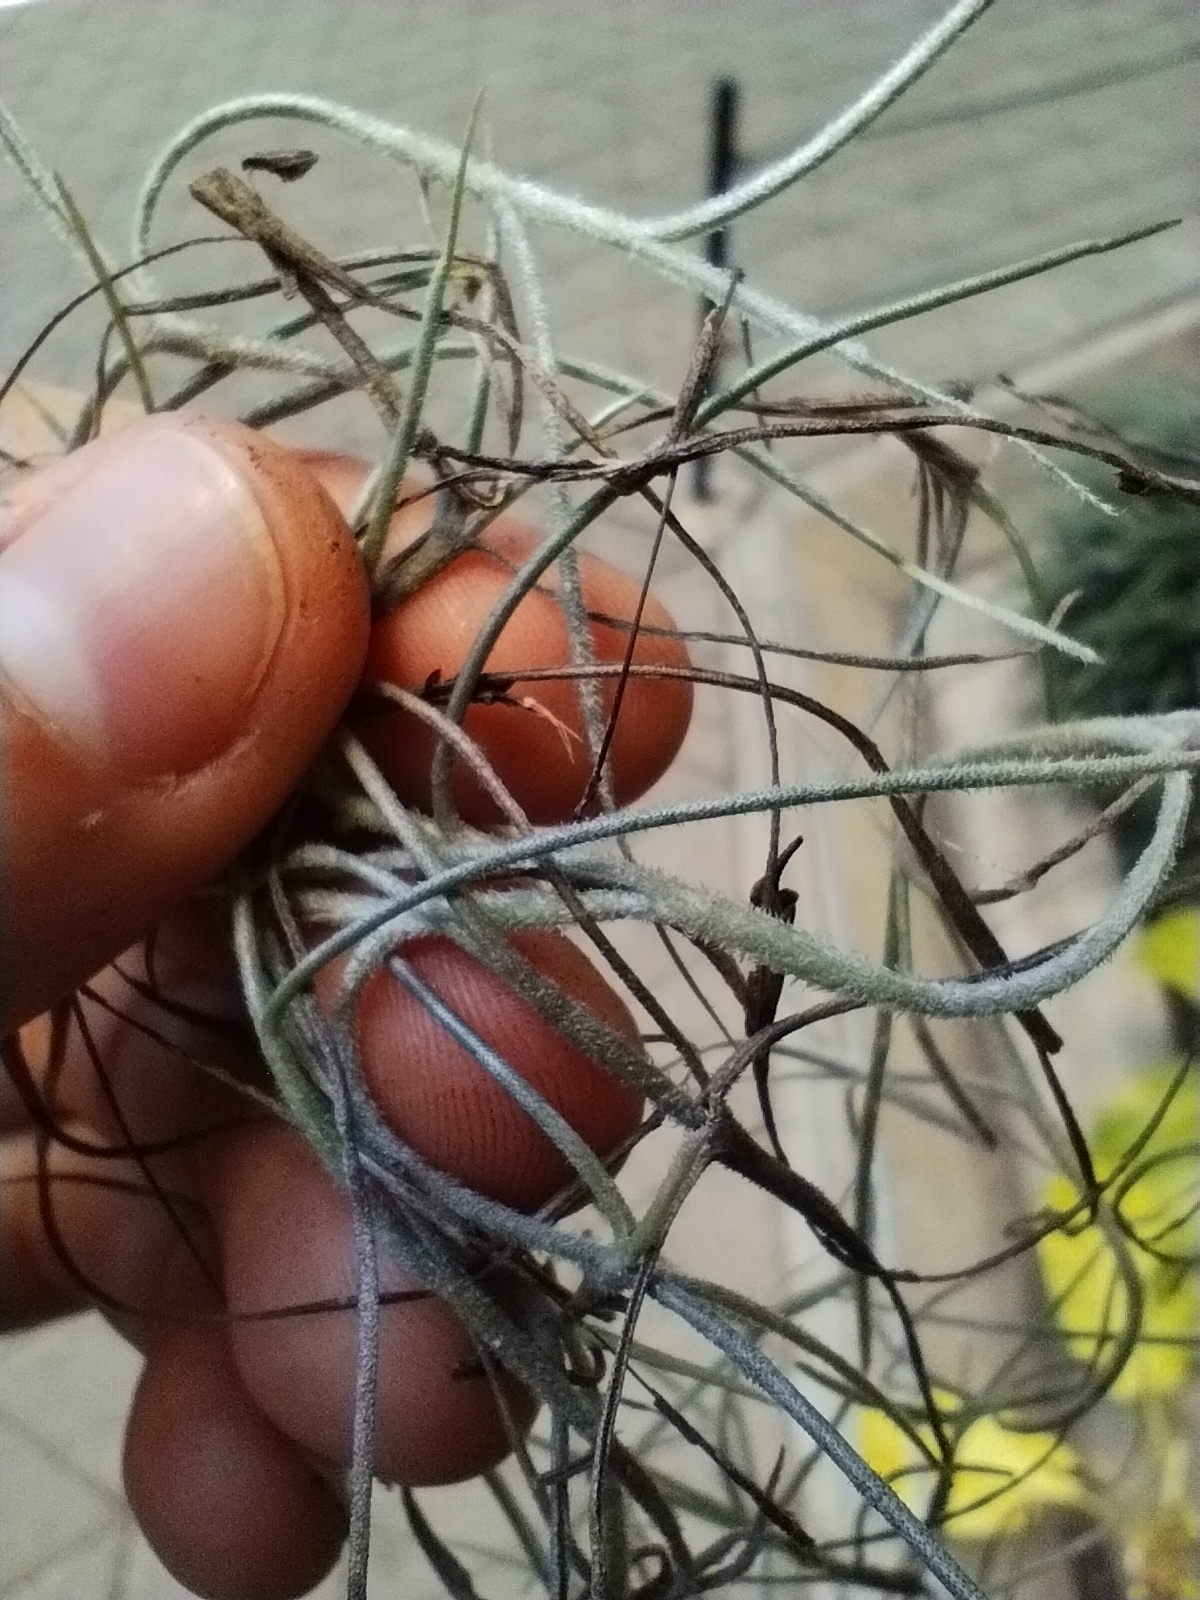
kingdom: Plantae
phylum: Tracheophyta
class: Liliopsida
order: Poales
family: Bromeliaceae
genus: Tillandsia
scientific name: Tillandsia usneoides
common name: Spanish moss
